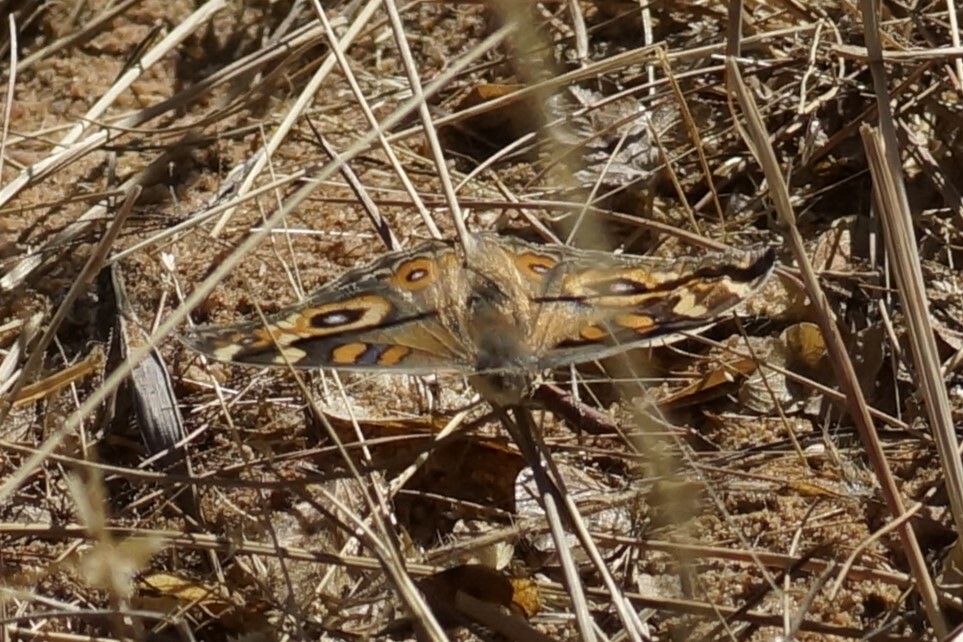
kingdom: Animalia
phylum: Arthropoda
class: Insecta
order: Lepidoptera
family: Nymphalidae
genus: Junonia
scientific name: Junonia villida
